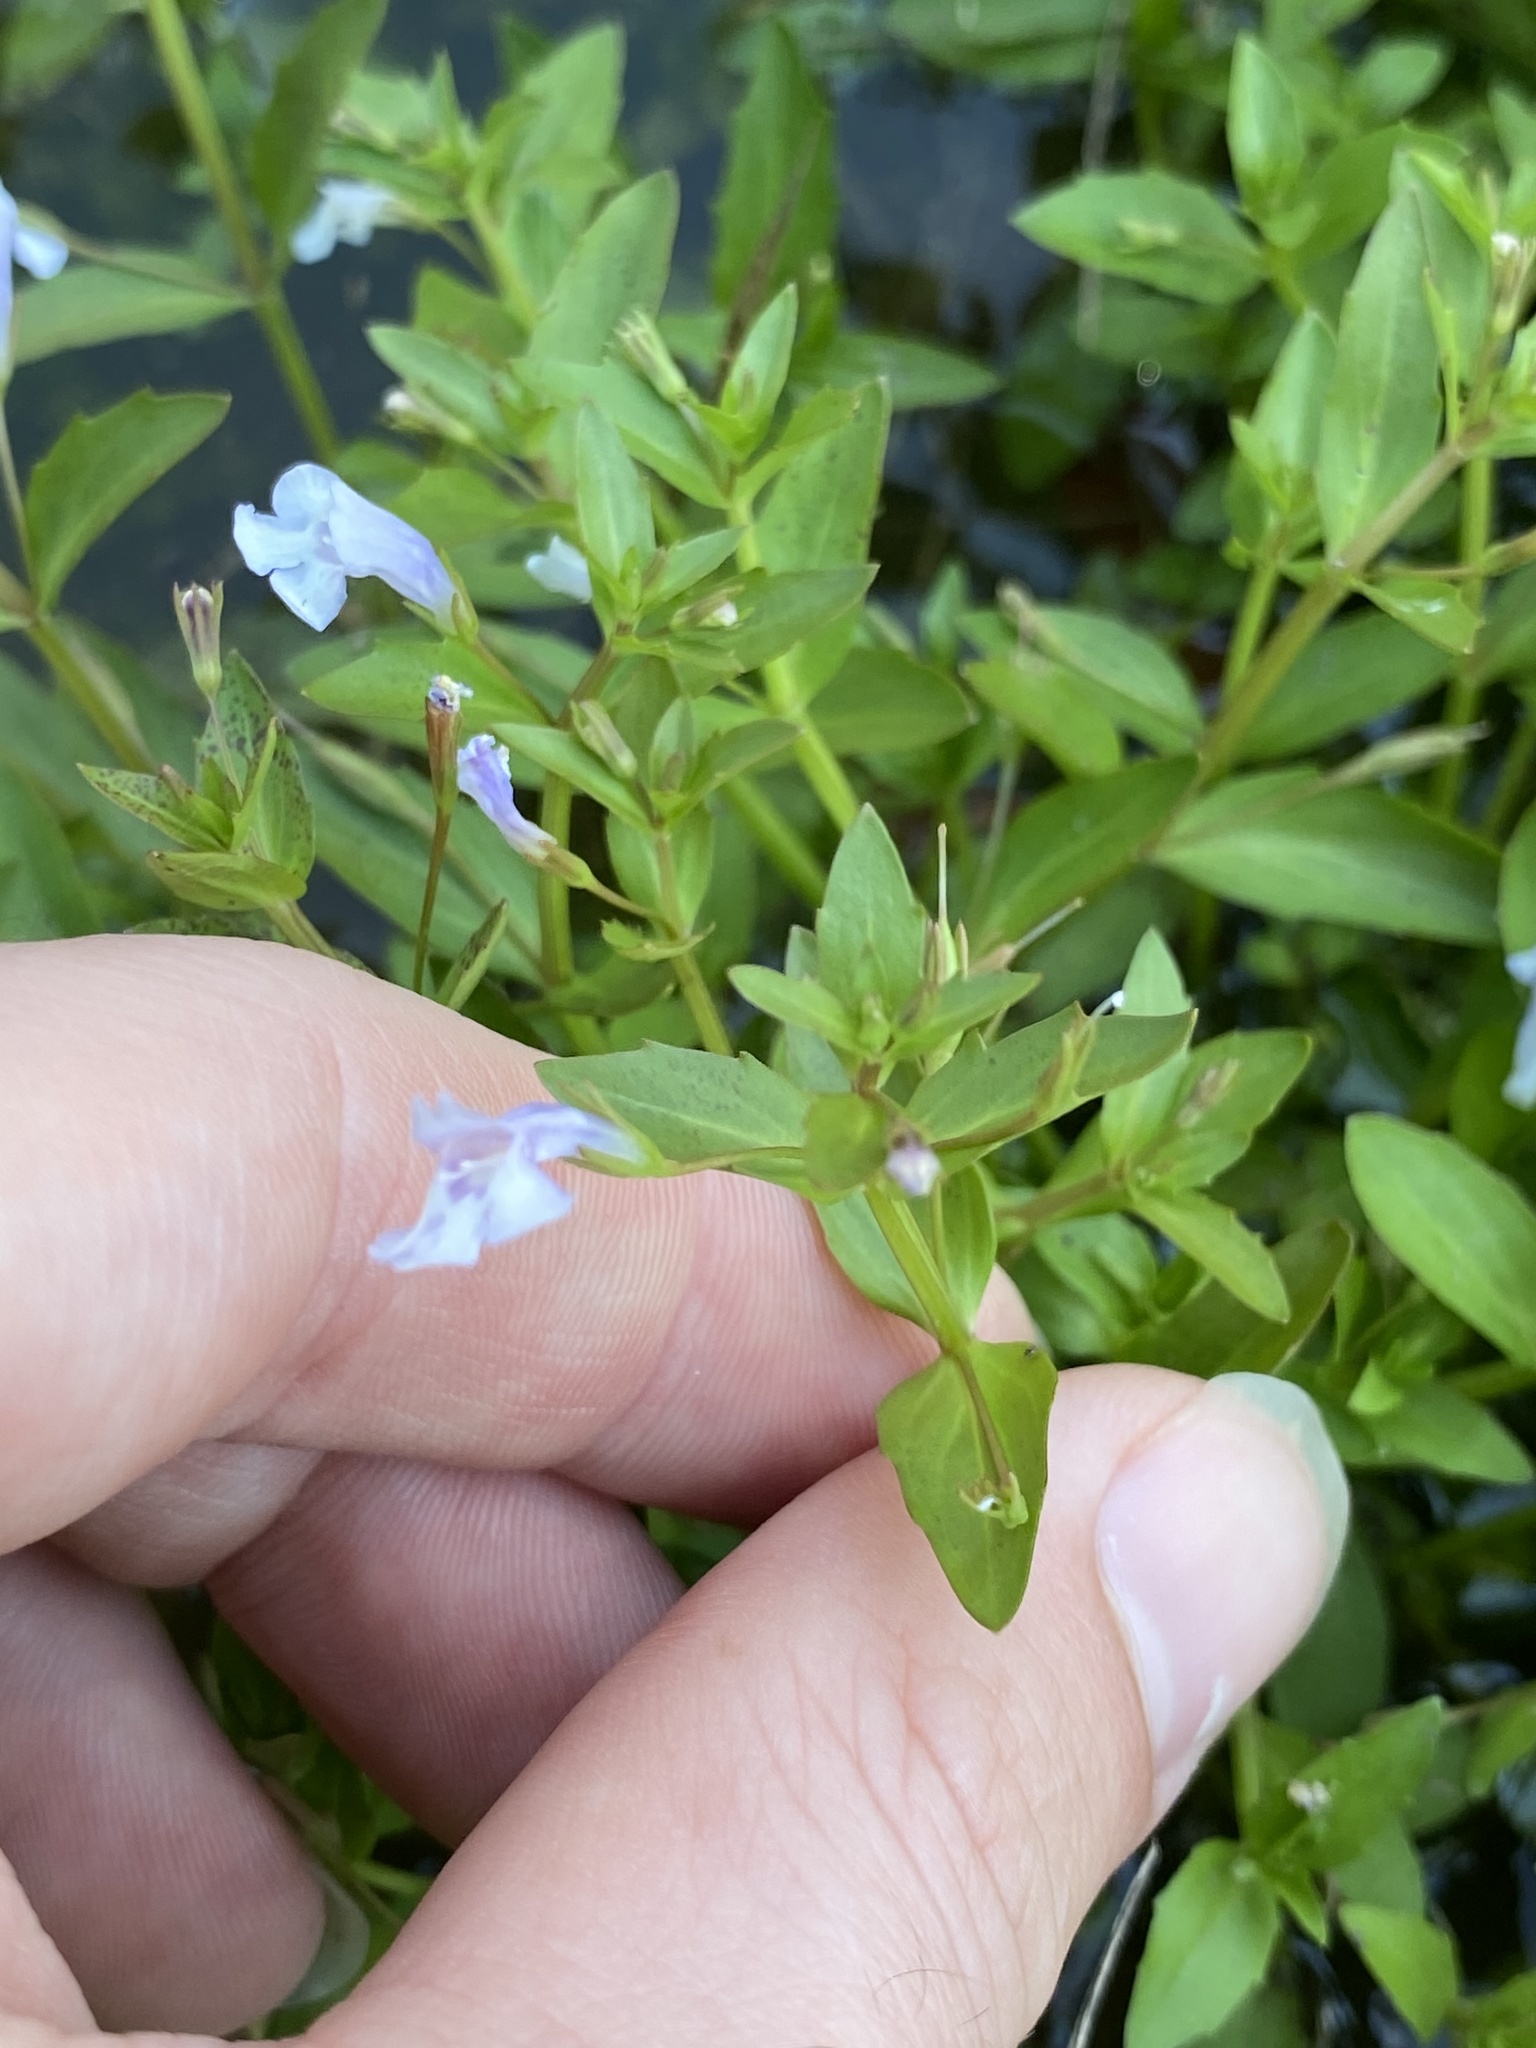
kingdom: Plantae
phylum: Tracheophyta
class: Magnoliopsida
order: Lamiales
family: Linderniaceae
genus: Lindernia
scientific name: Lindernia dubia
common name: Annual false pimpernel
